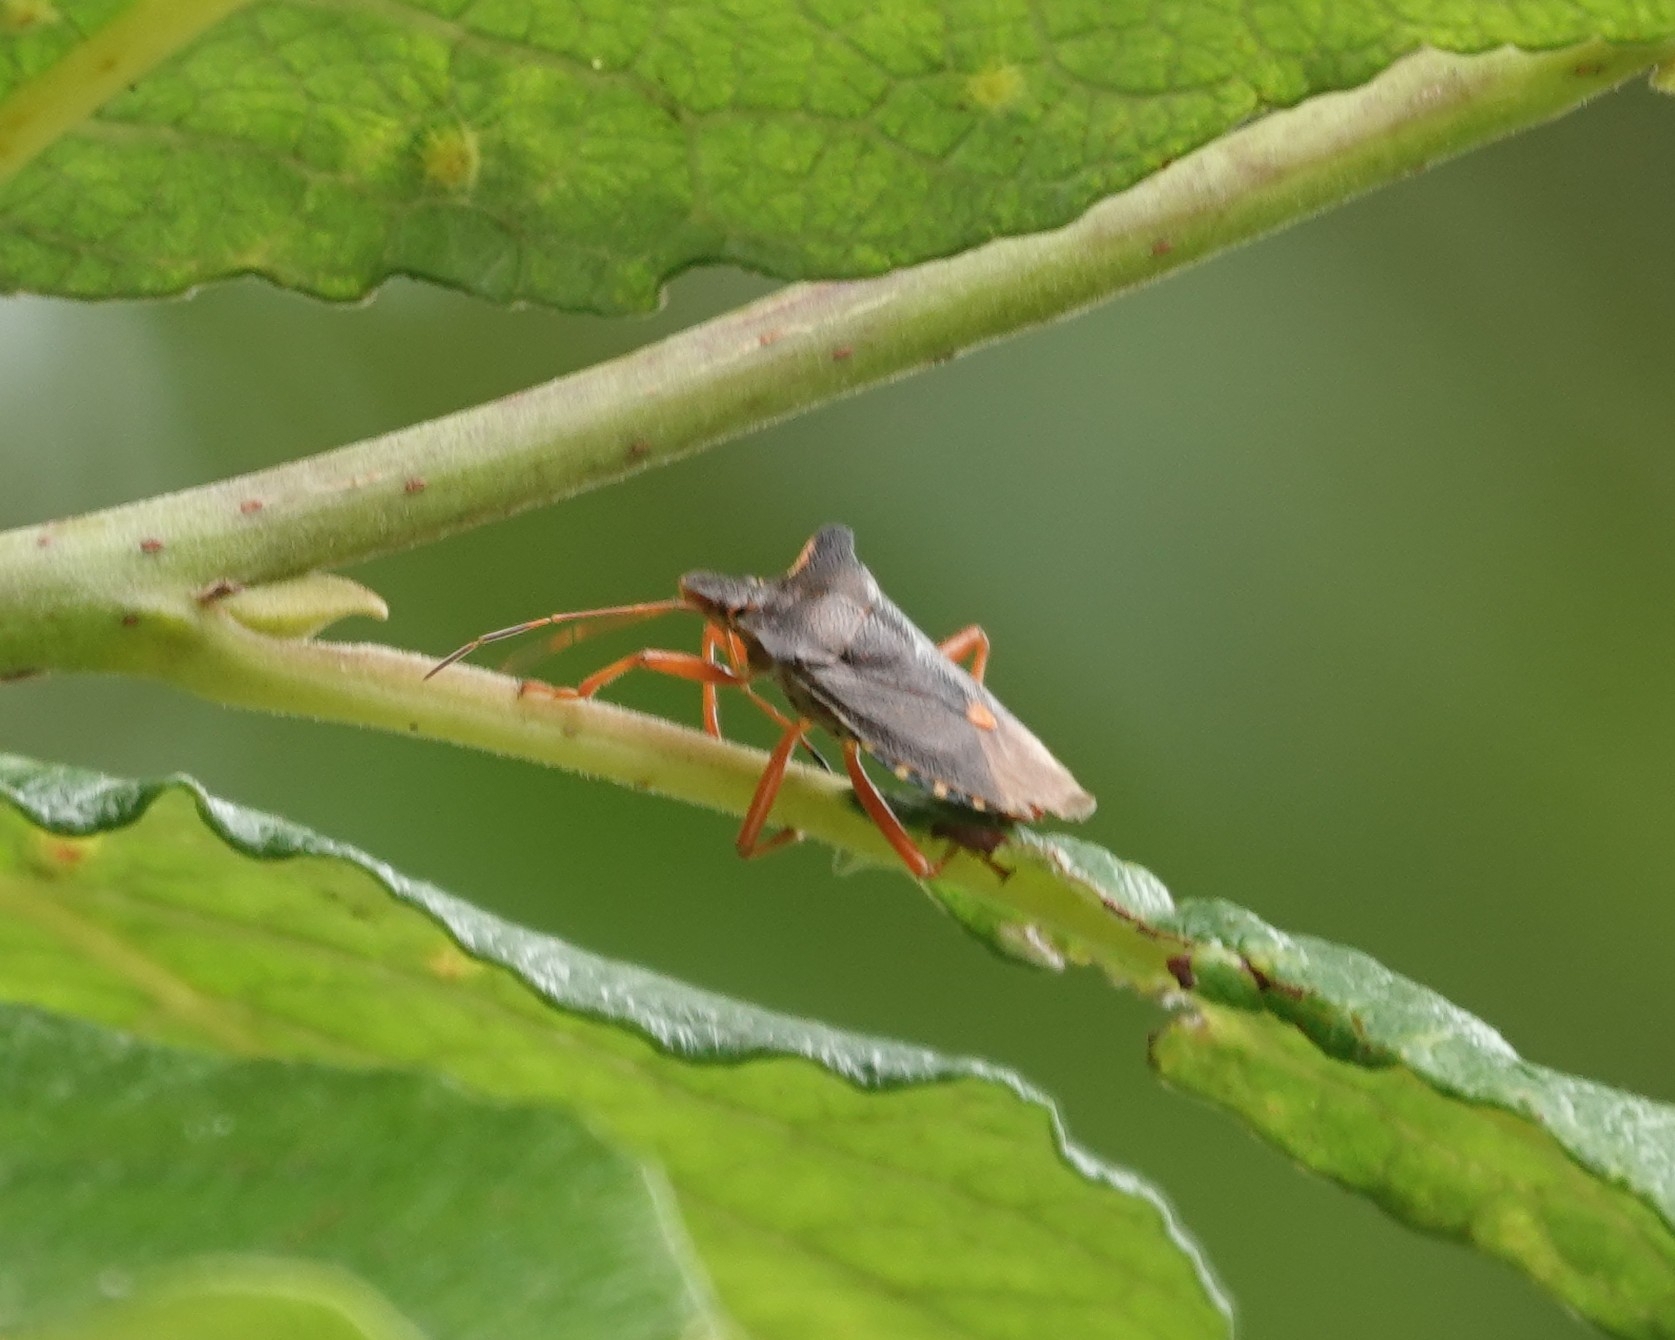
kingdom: Animalia
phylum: Arthropoda
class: Insecta
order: Hemiptera
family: Pentatomidae
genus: Pentatoma
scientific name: Pentatoma rufipes
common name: Forest bug
